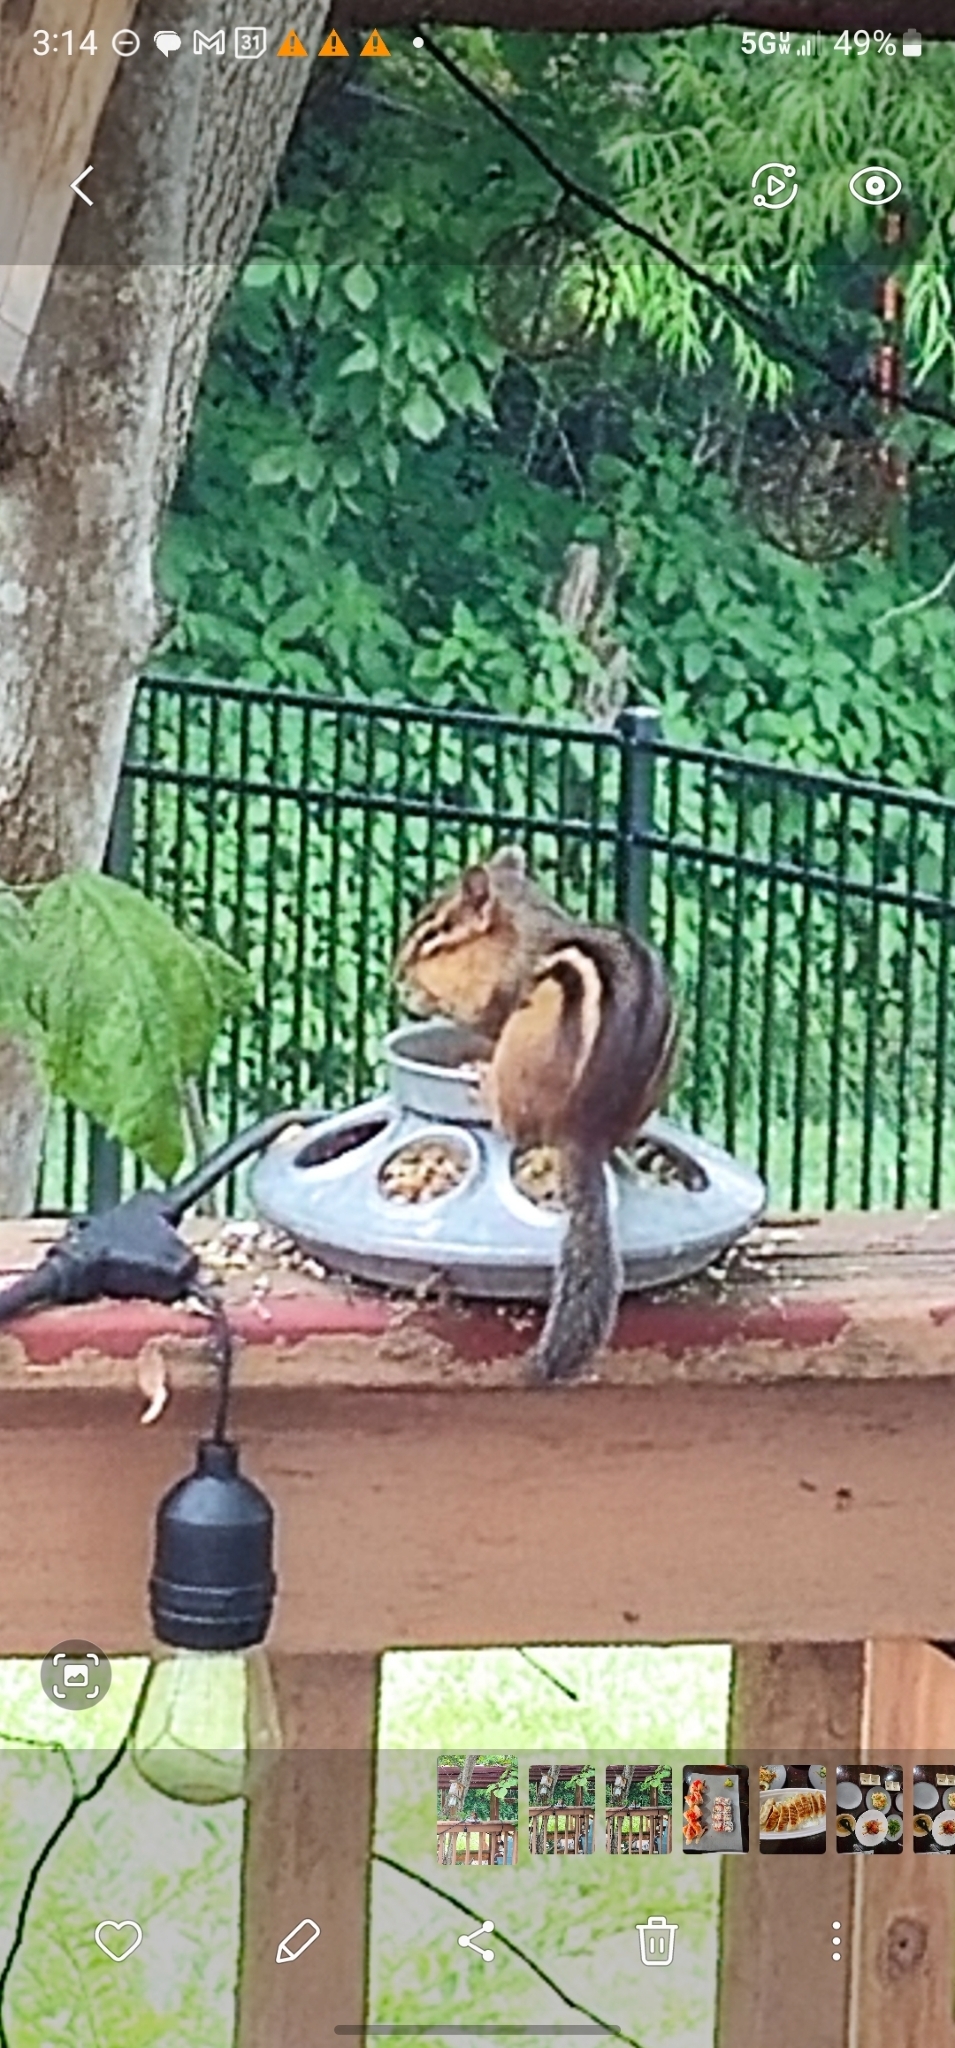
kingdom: Animalia
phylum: Chordata
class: Mammalia
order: Rodentia
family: Sciuridae
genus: Tamias
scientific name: Tamias striatus
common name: Eastern chipmunk
